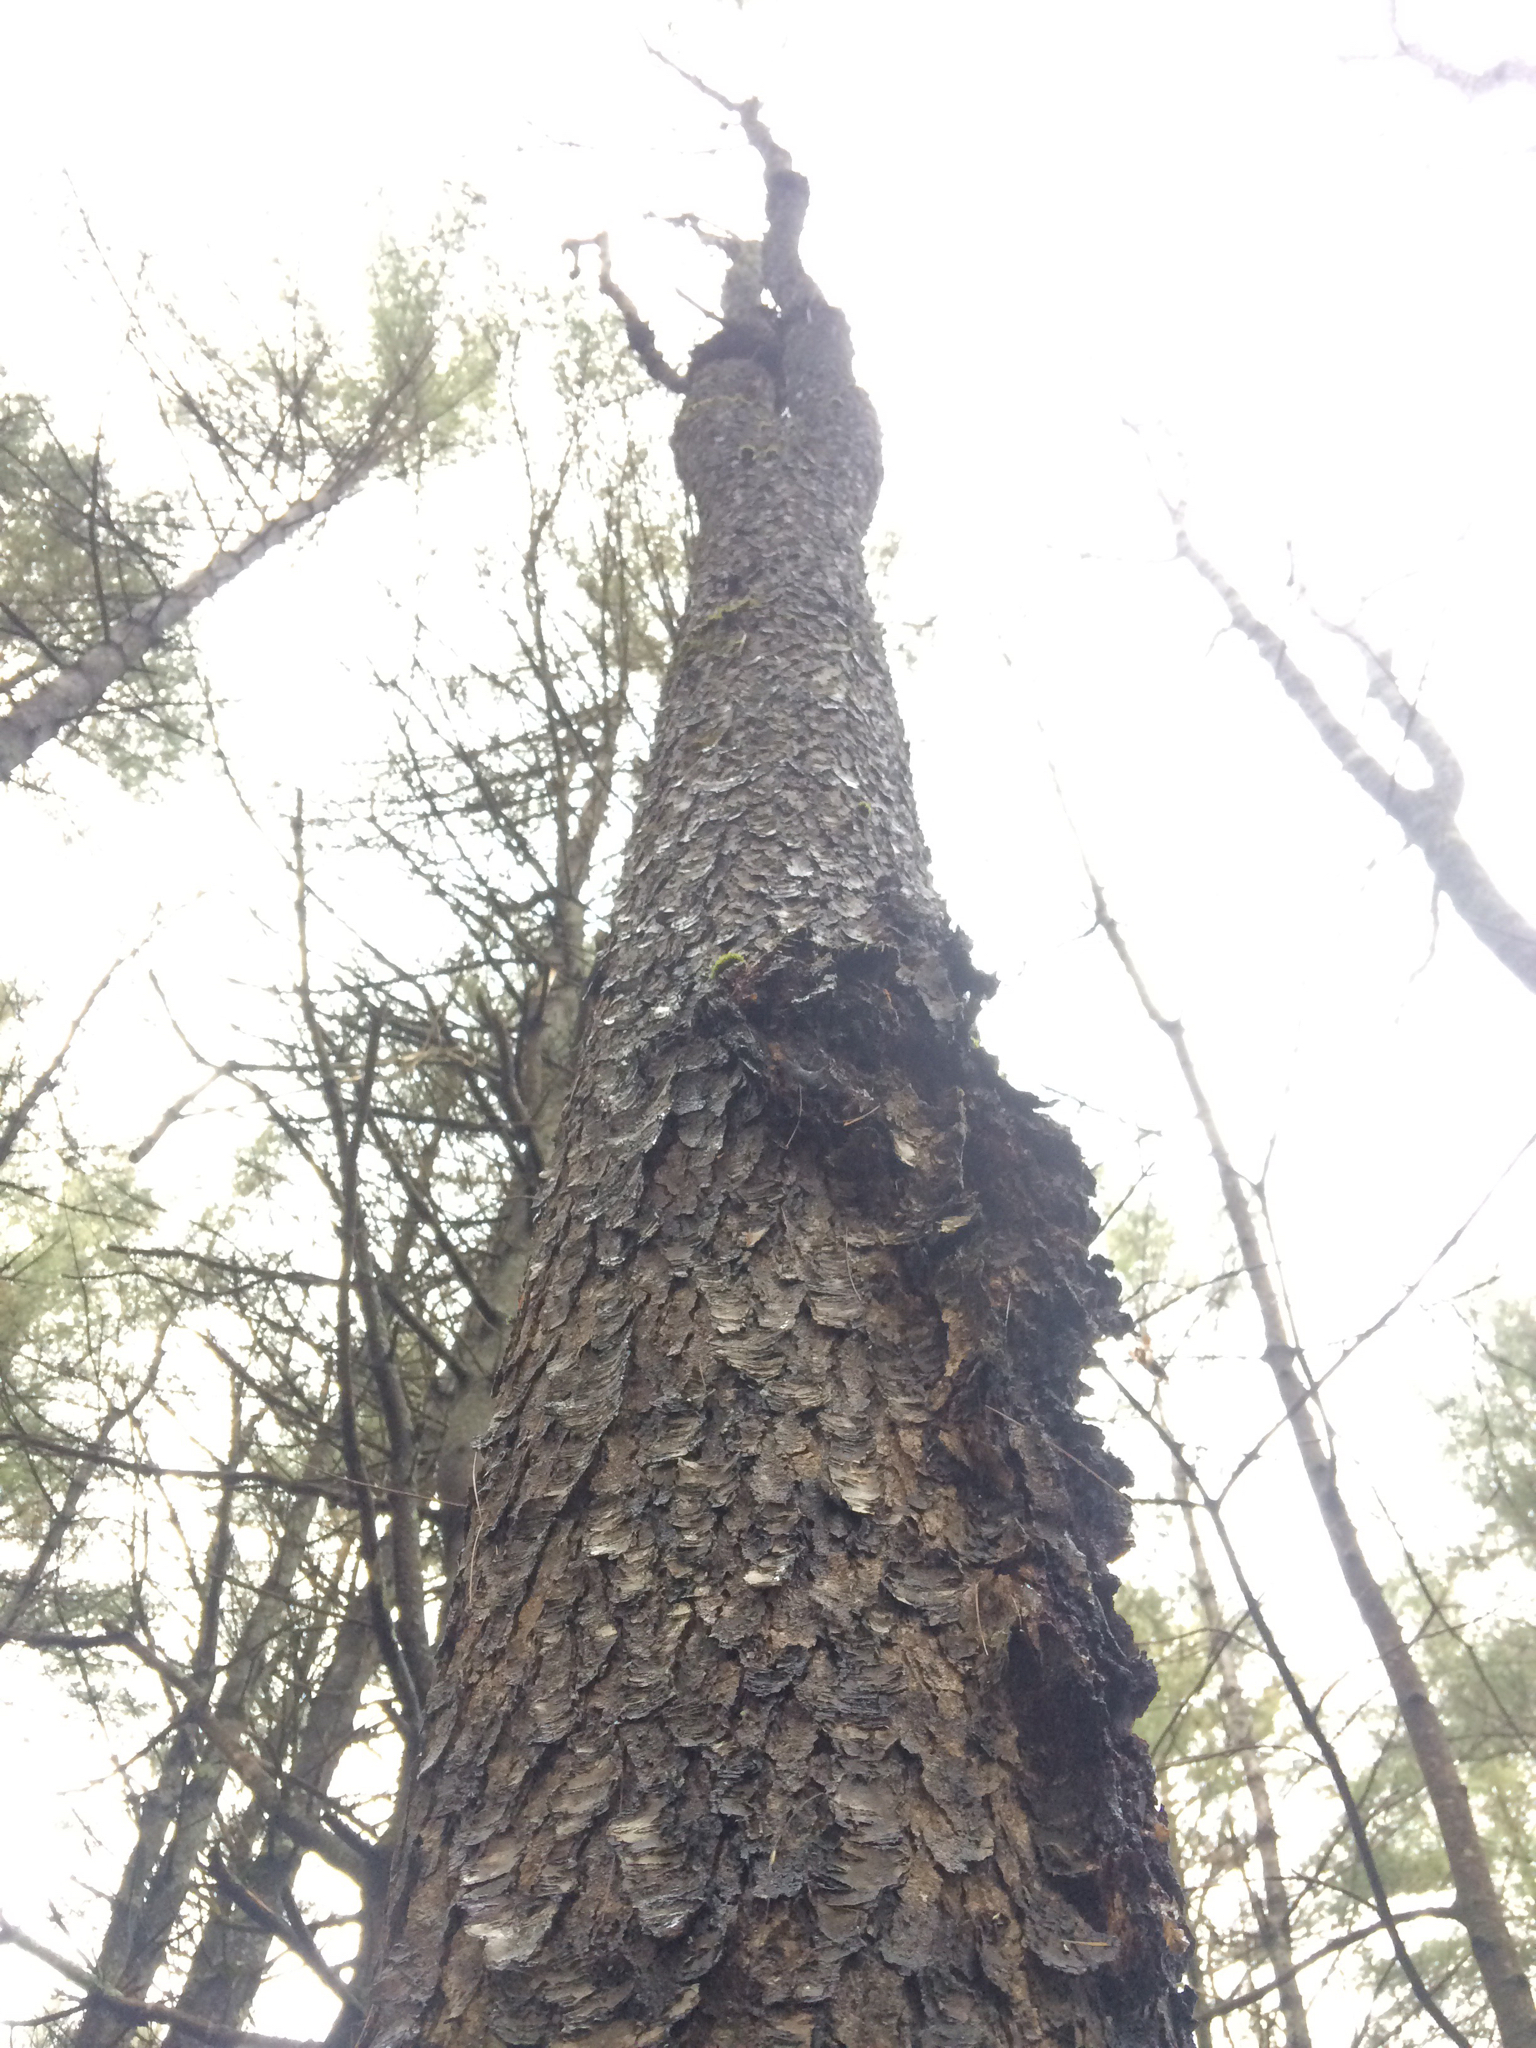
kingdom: Plantae
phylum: Tracheophyta
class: Magnoliopsida
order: Rosales
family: Rosaceae
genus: Prunus
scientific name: Prunus serotina
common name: Black cherry
